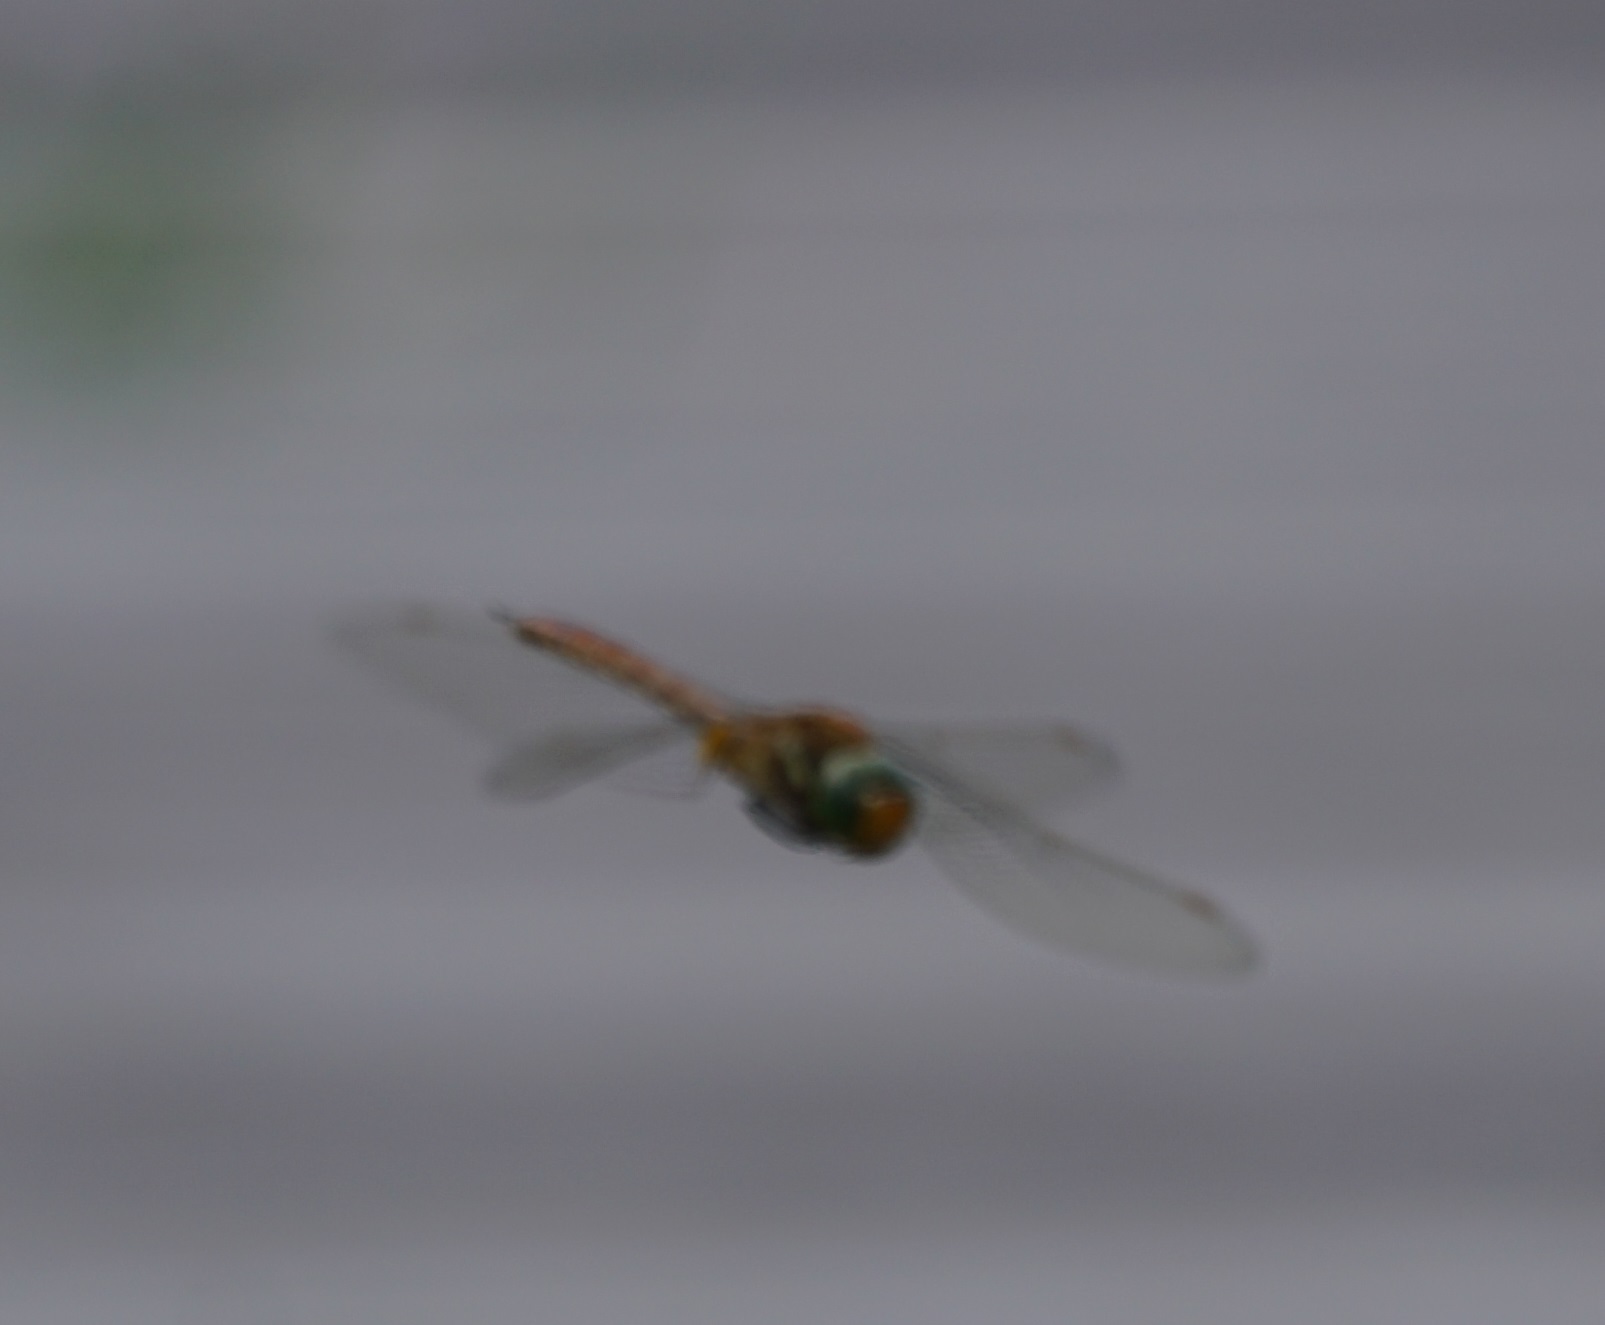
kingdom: Animalia
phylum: Arthropoda
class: Insecta
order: Odonata
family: Aeshnidae
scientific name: Aeshnidae
